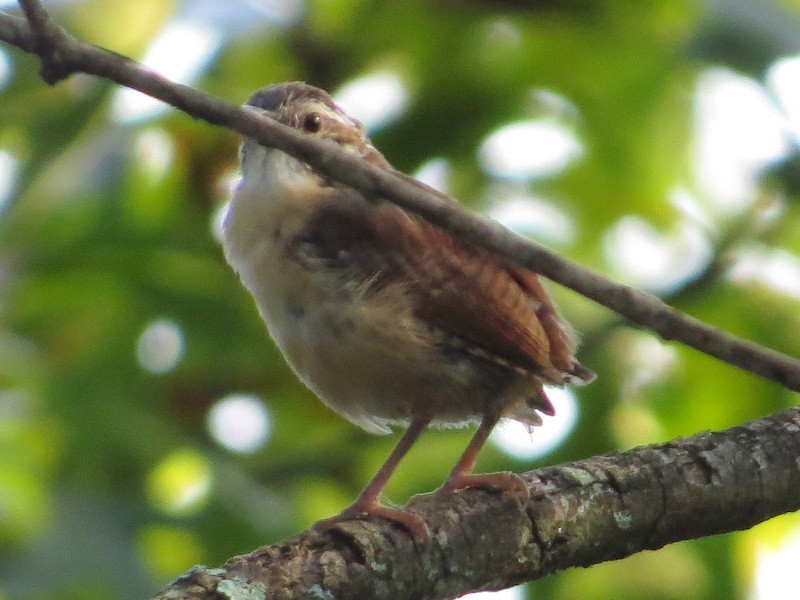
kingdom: Animalia
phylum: Chordata
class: Aves
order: Passeriformes
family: Troglodytidae
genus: Thryothorus
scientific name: Thryothorus ludovicianus
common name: Carolina wren
